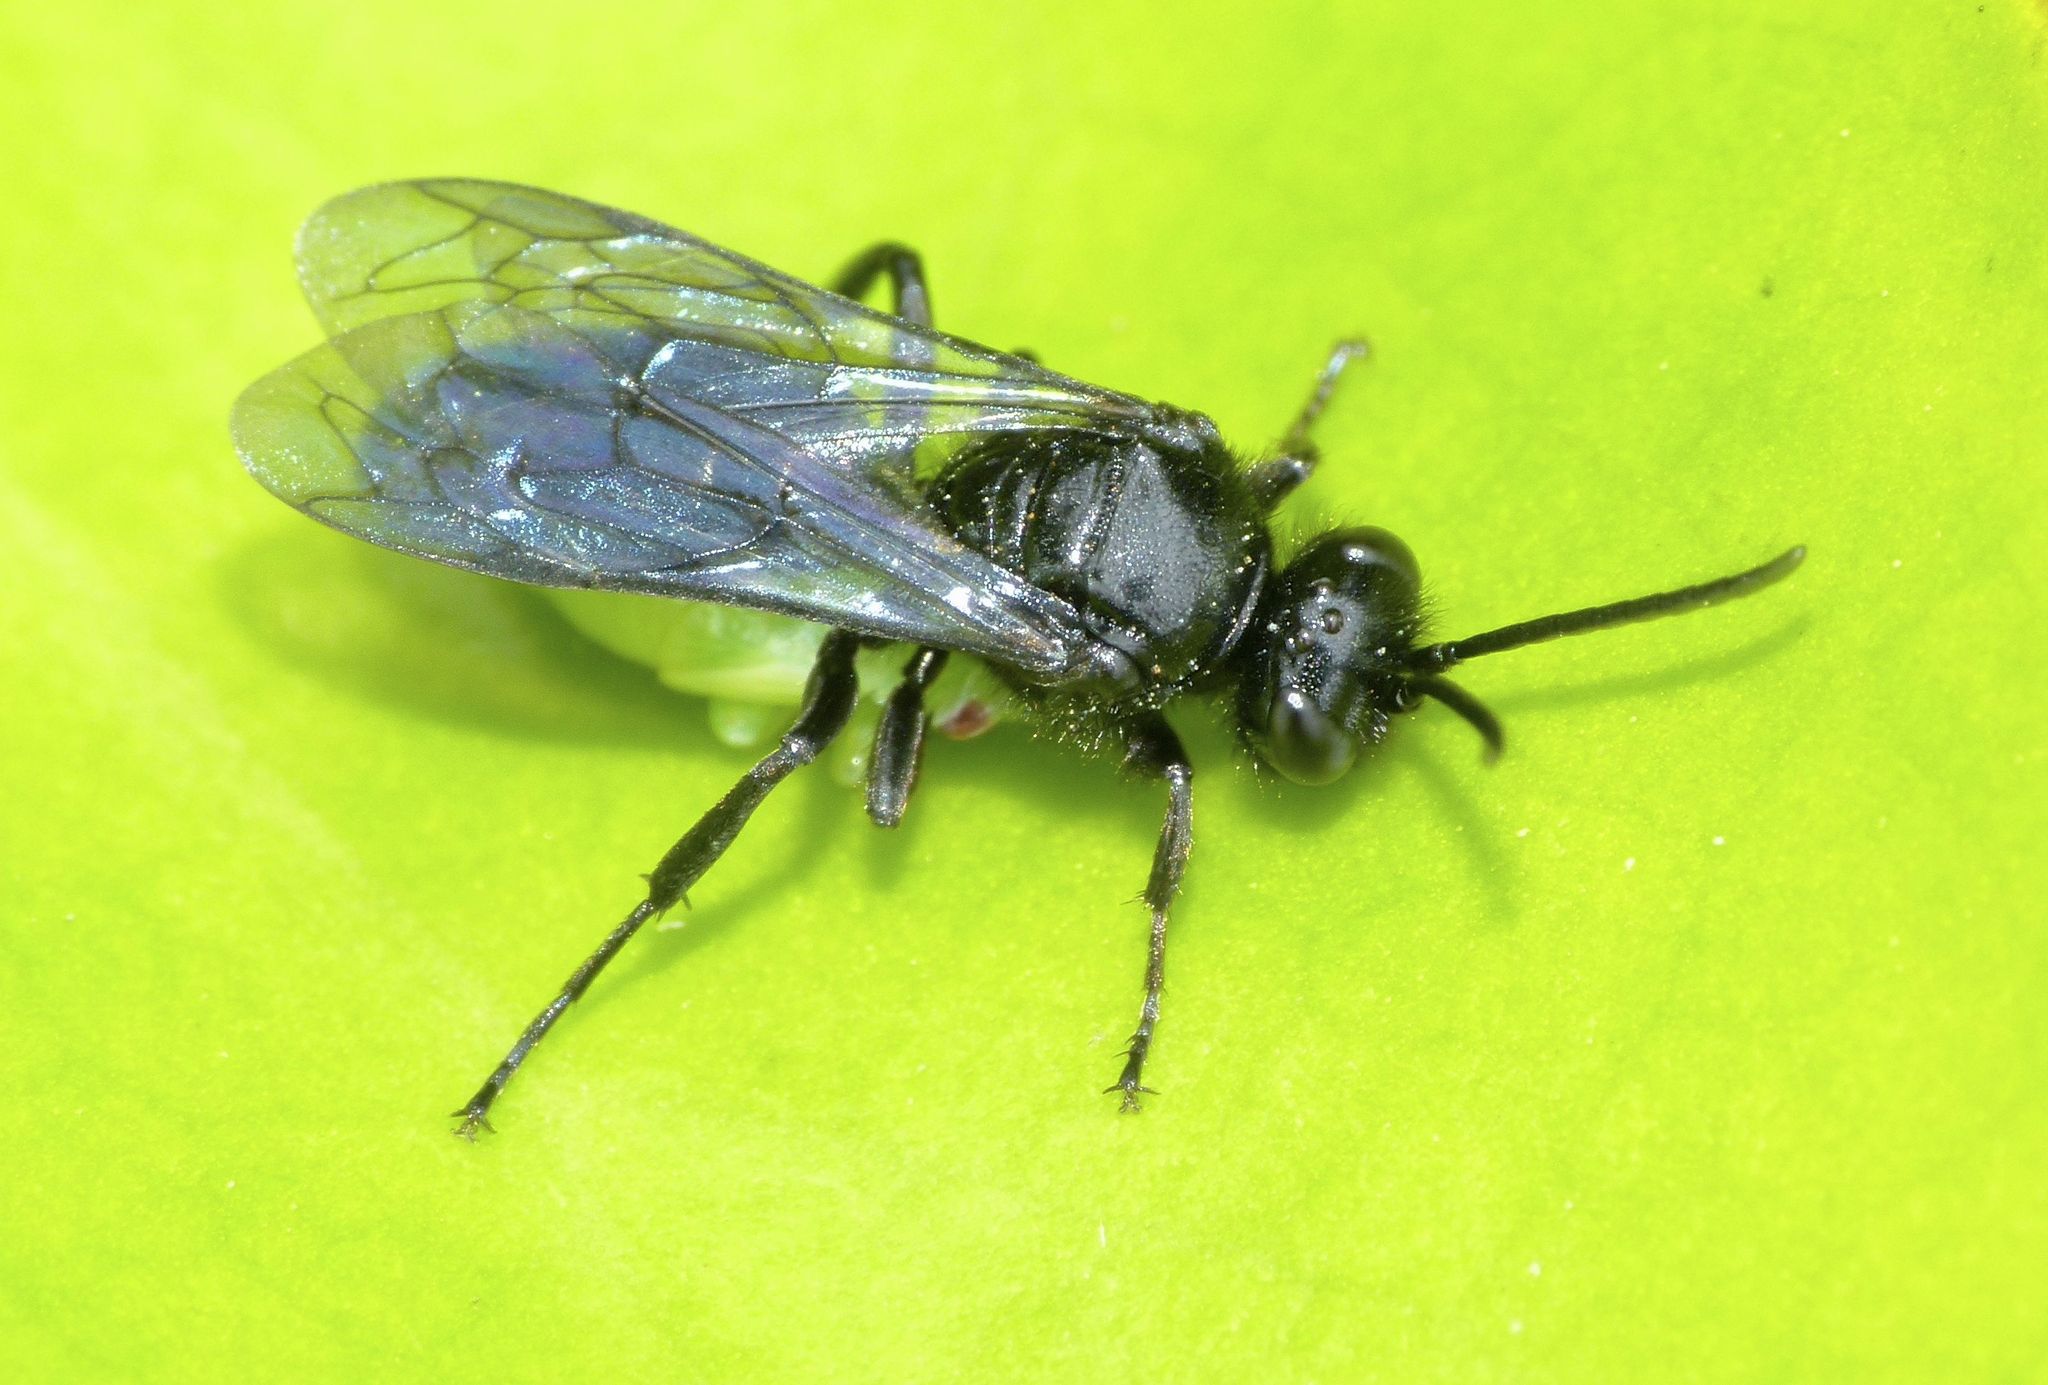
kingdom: Animalia
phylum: Arthropoda
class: Insecta
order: Hymenoptera
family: Crabronidae
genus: Argogorytes
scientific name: Argogorytes carbonarius
